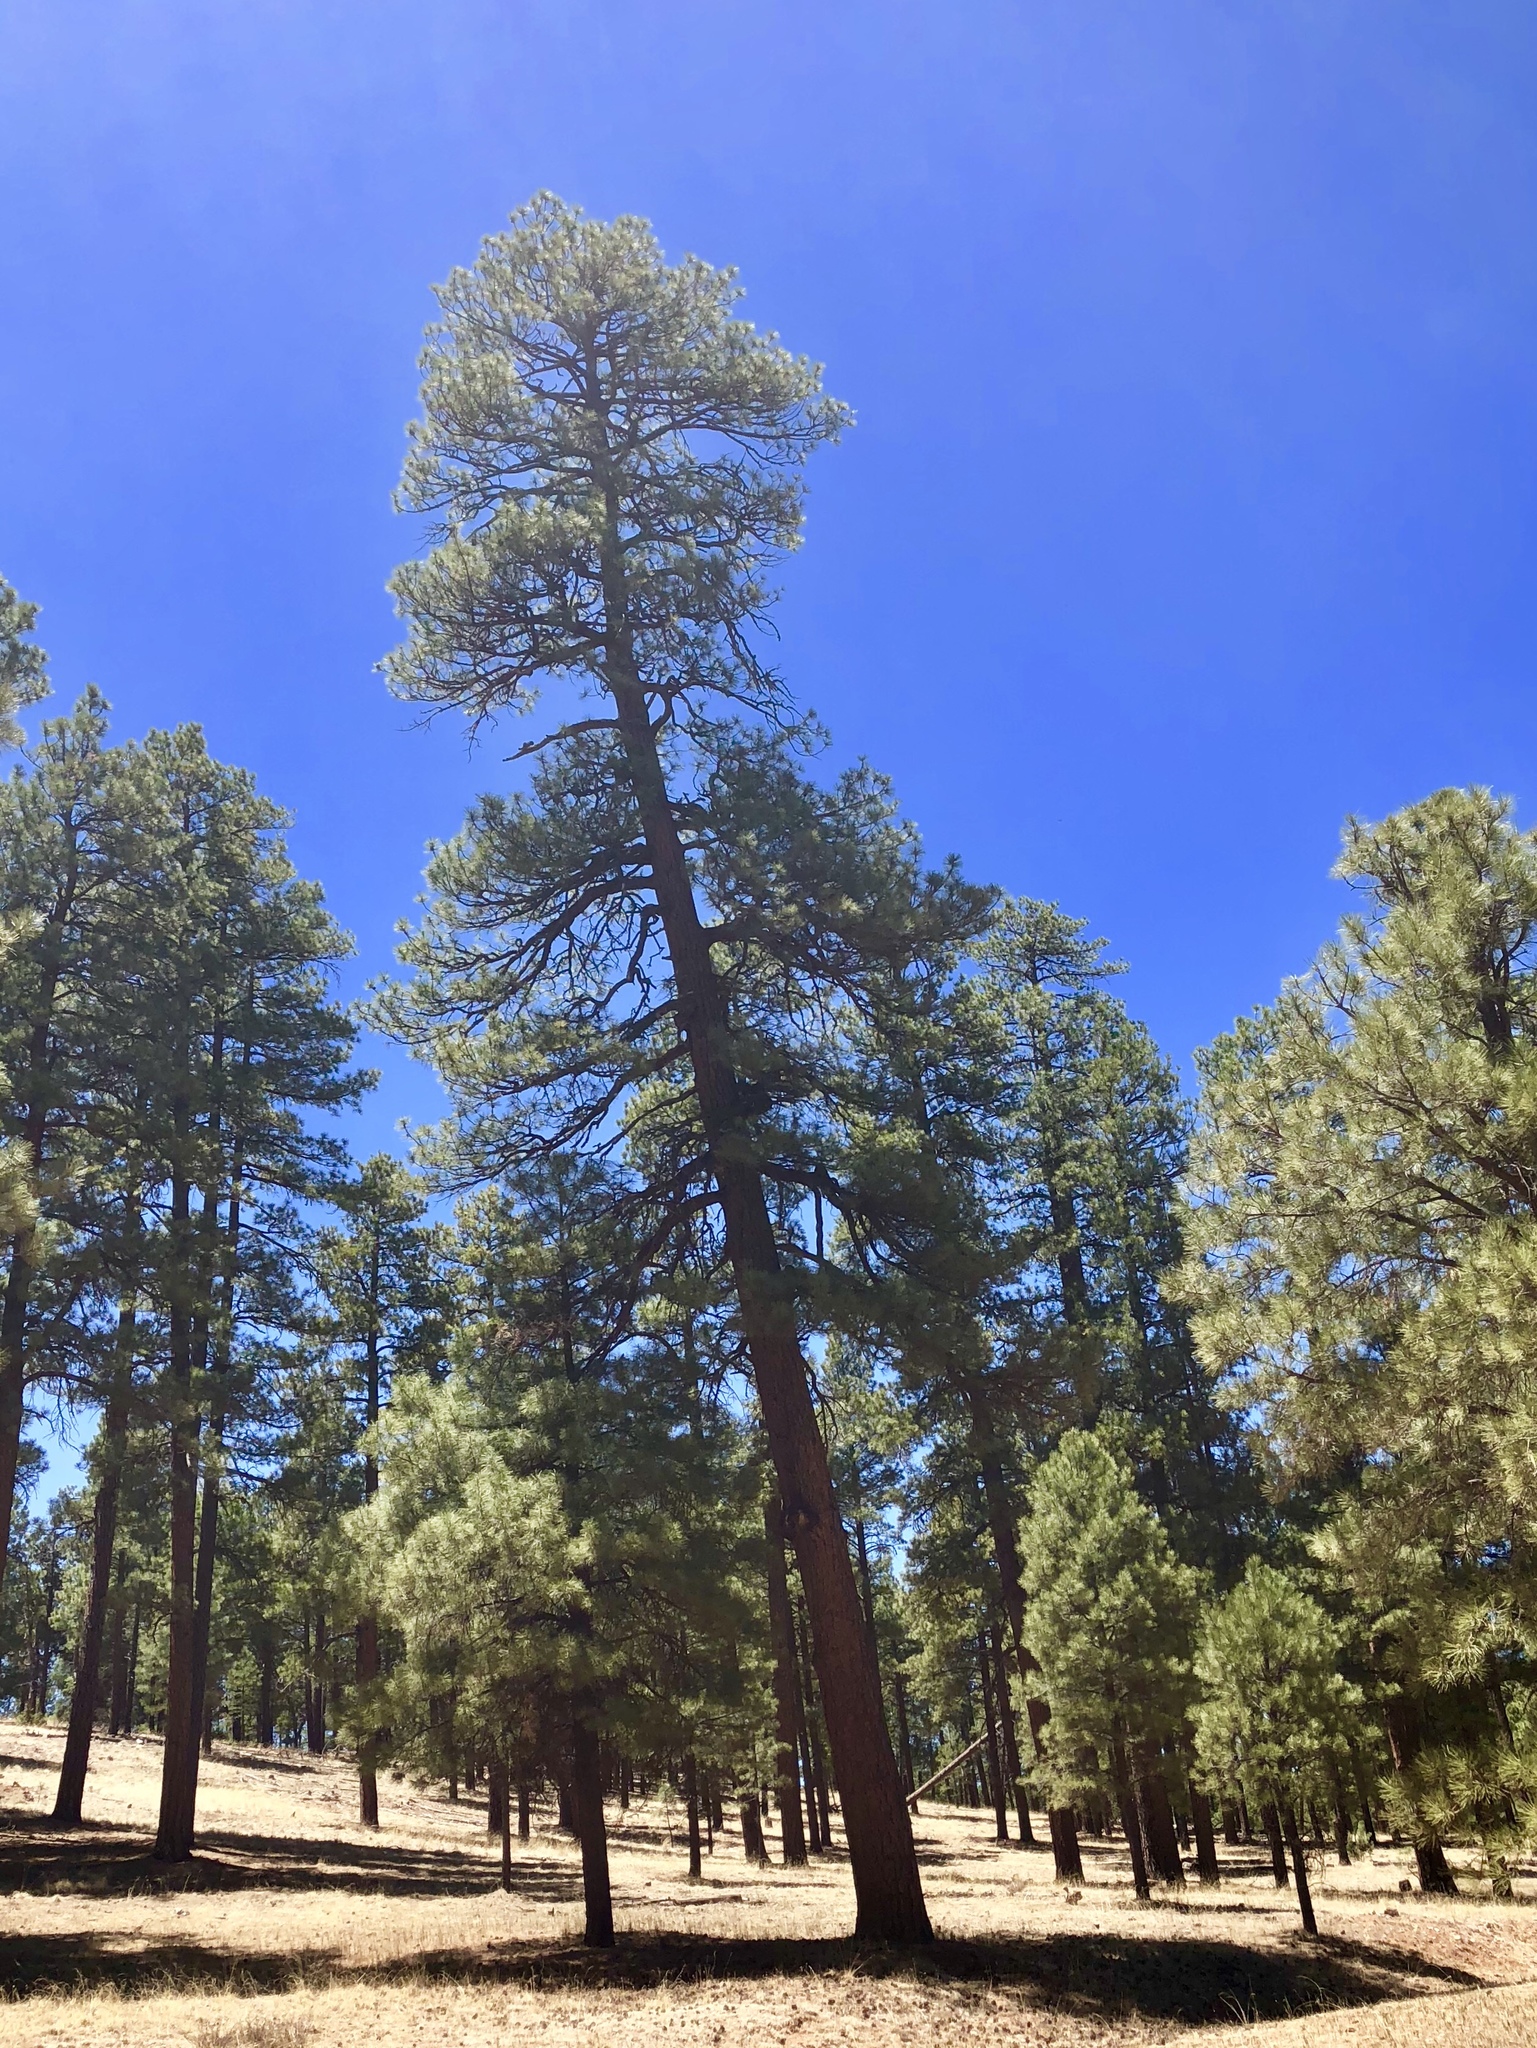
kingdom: Plantae
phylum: Tracheophyta
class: Pinopsida
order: Pinales
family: Pinaceae
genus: Pinus
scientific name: Pinus ponderosa
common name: Western yellow-pine
